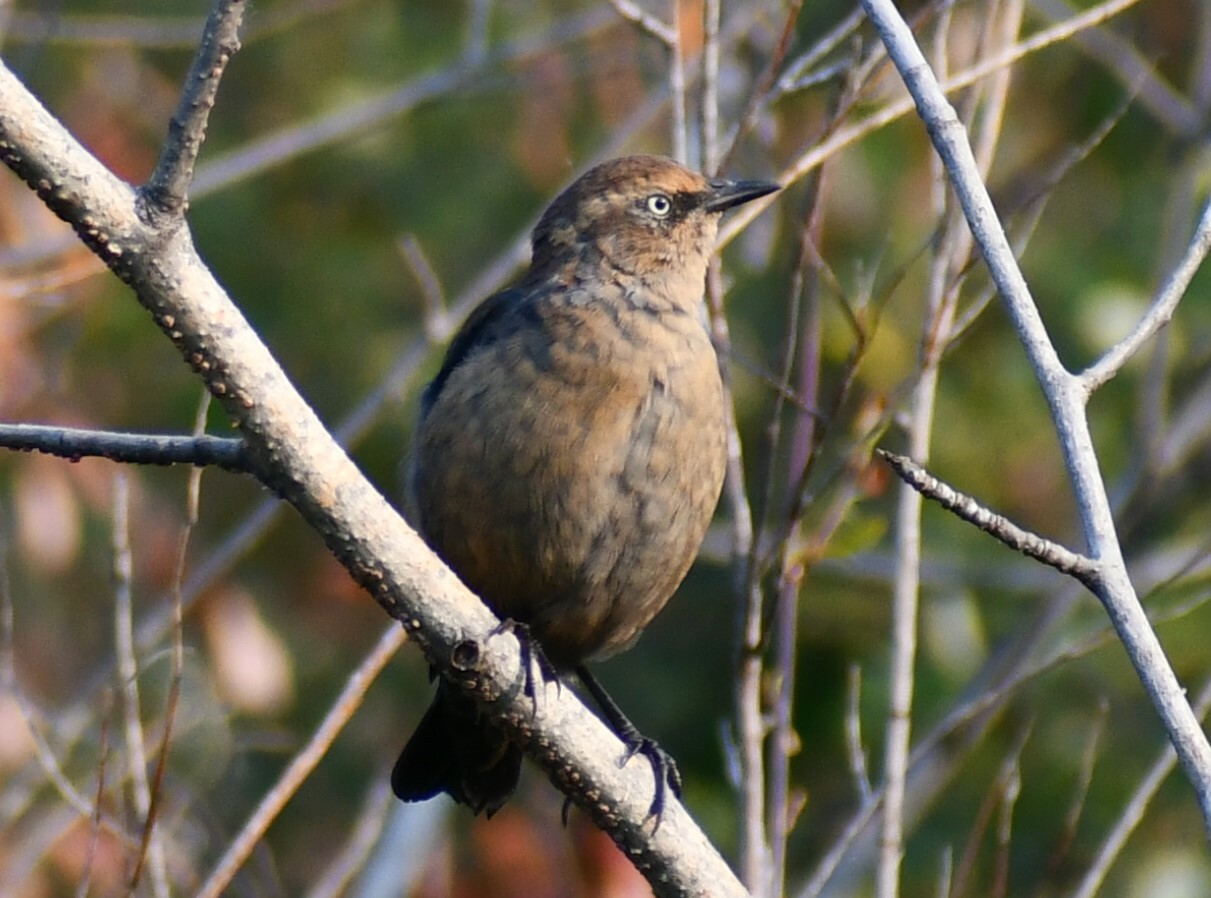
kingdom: Animalia
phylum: Chordata
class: Aves
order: Passeriformes
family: Icteridae
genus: Euphagus
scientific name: Euphagus carolinus
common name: Rusty blackbird
